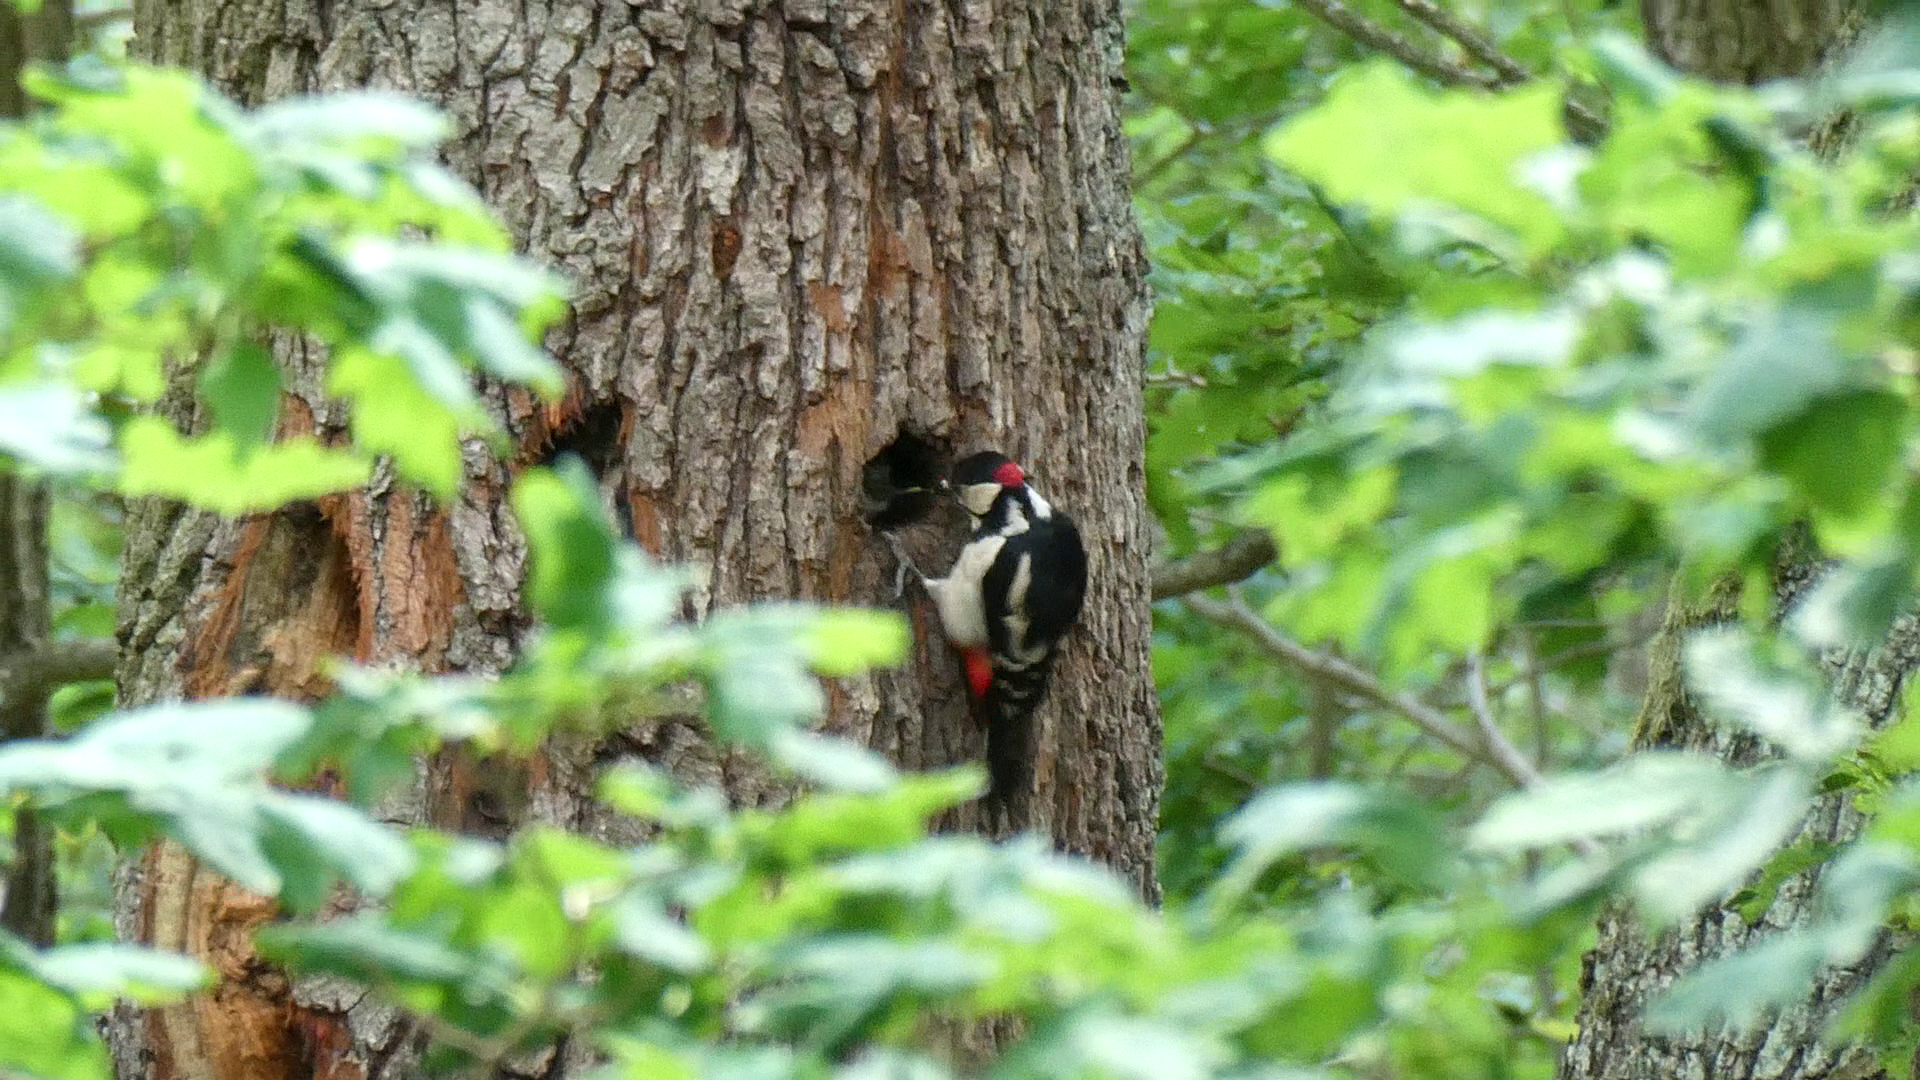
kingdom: Animalia
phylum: Chordata
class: Aves
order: Piciformes
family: Picidae
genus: Dendrocopos
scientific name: Dendrocopos major
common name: Great spotted woodpecker
